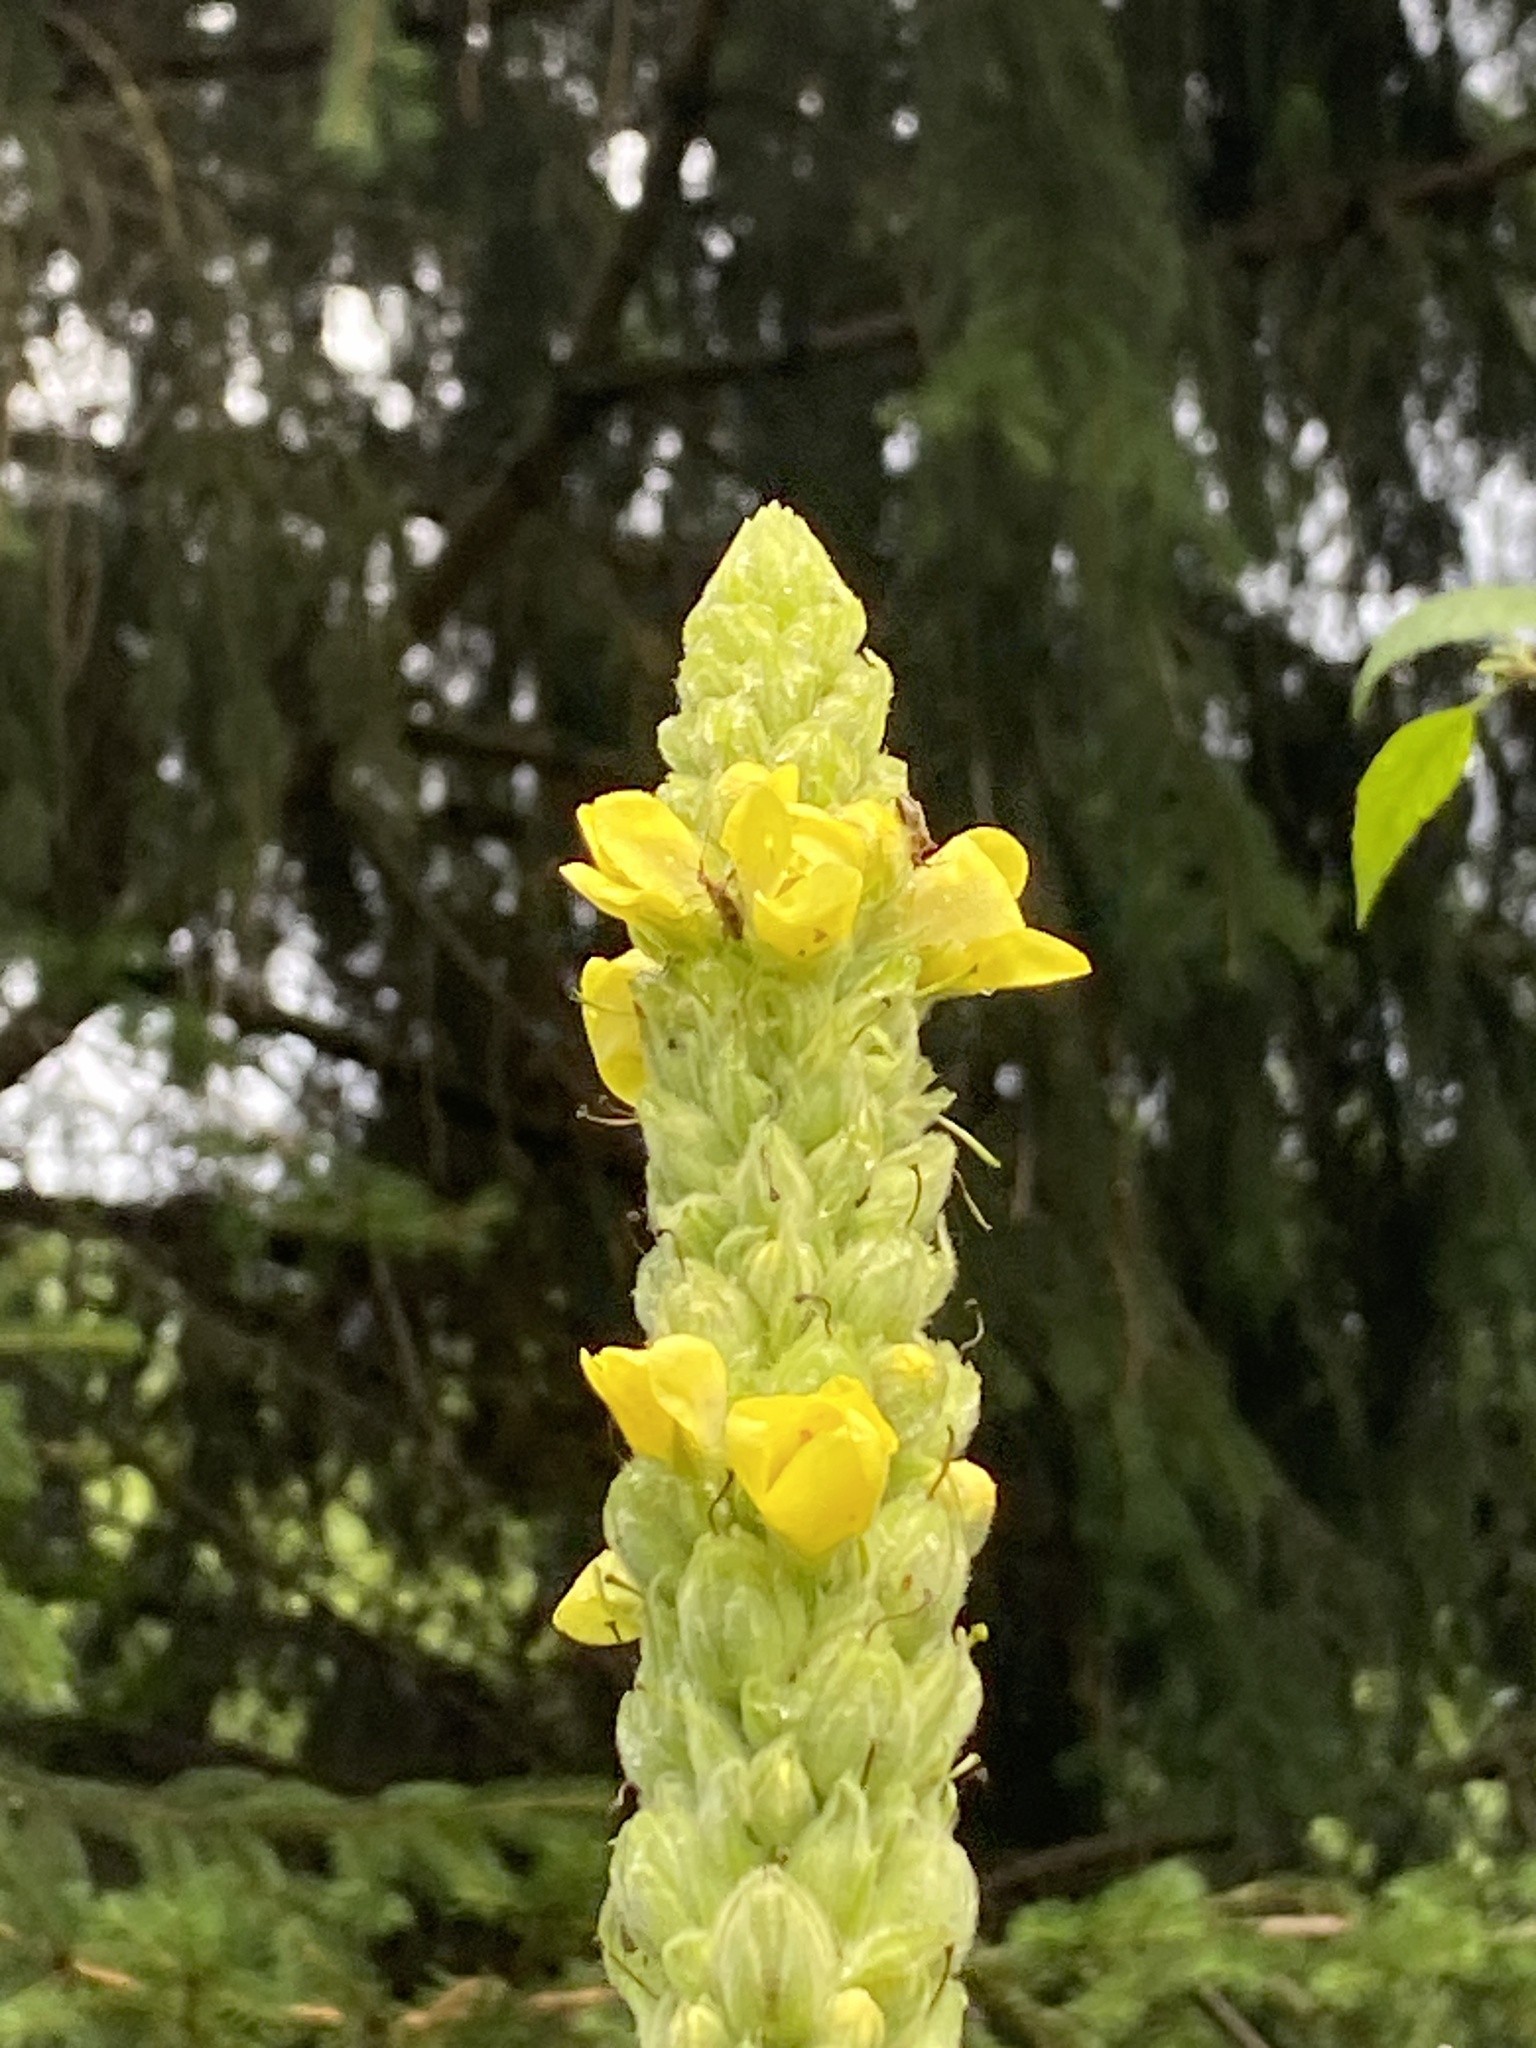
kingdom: Plantae
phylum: Tracheophyta
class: Magnoliopsida
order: Lamiales
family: Scrophulariaceae
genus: Verbascum
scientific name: Verbascum thapsus
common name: Common mullein
